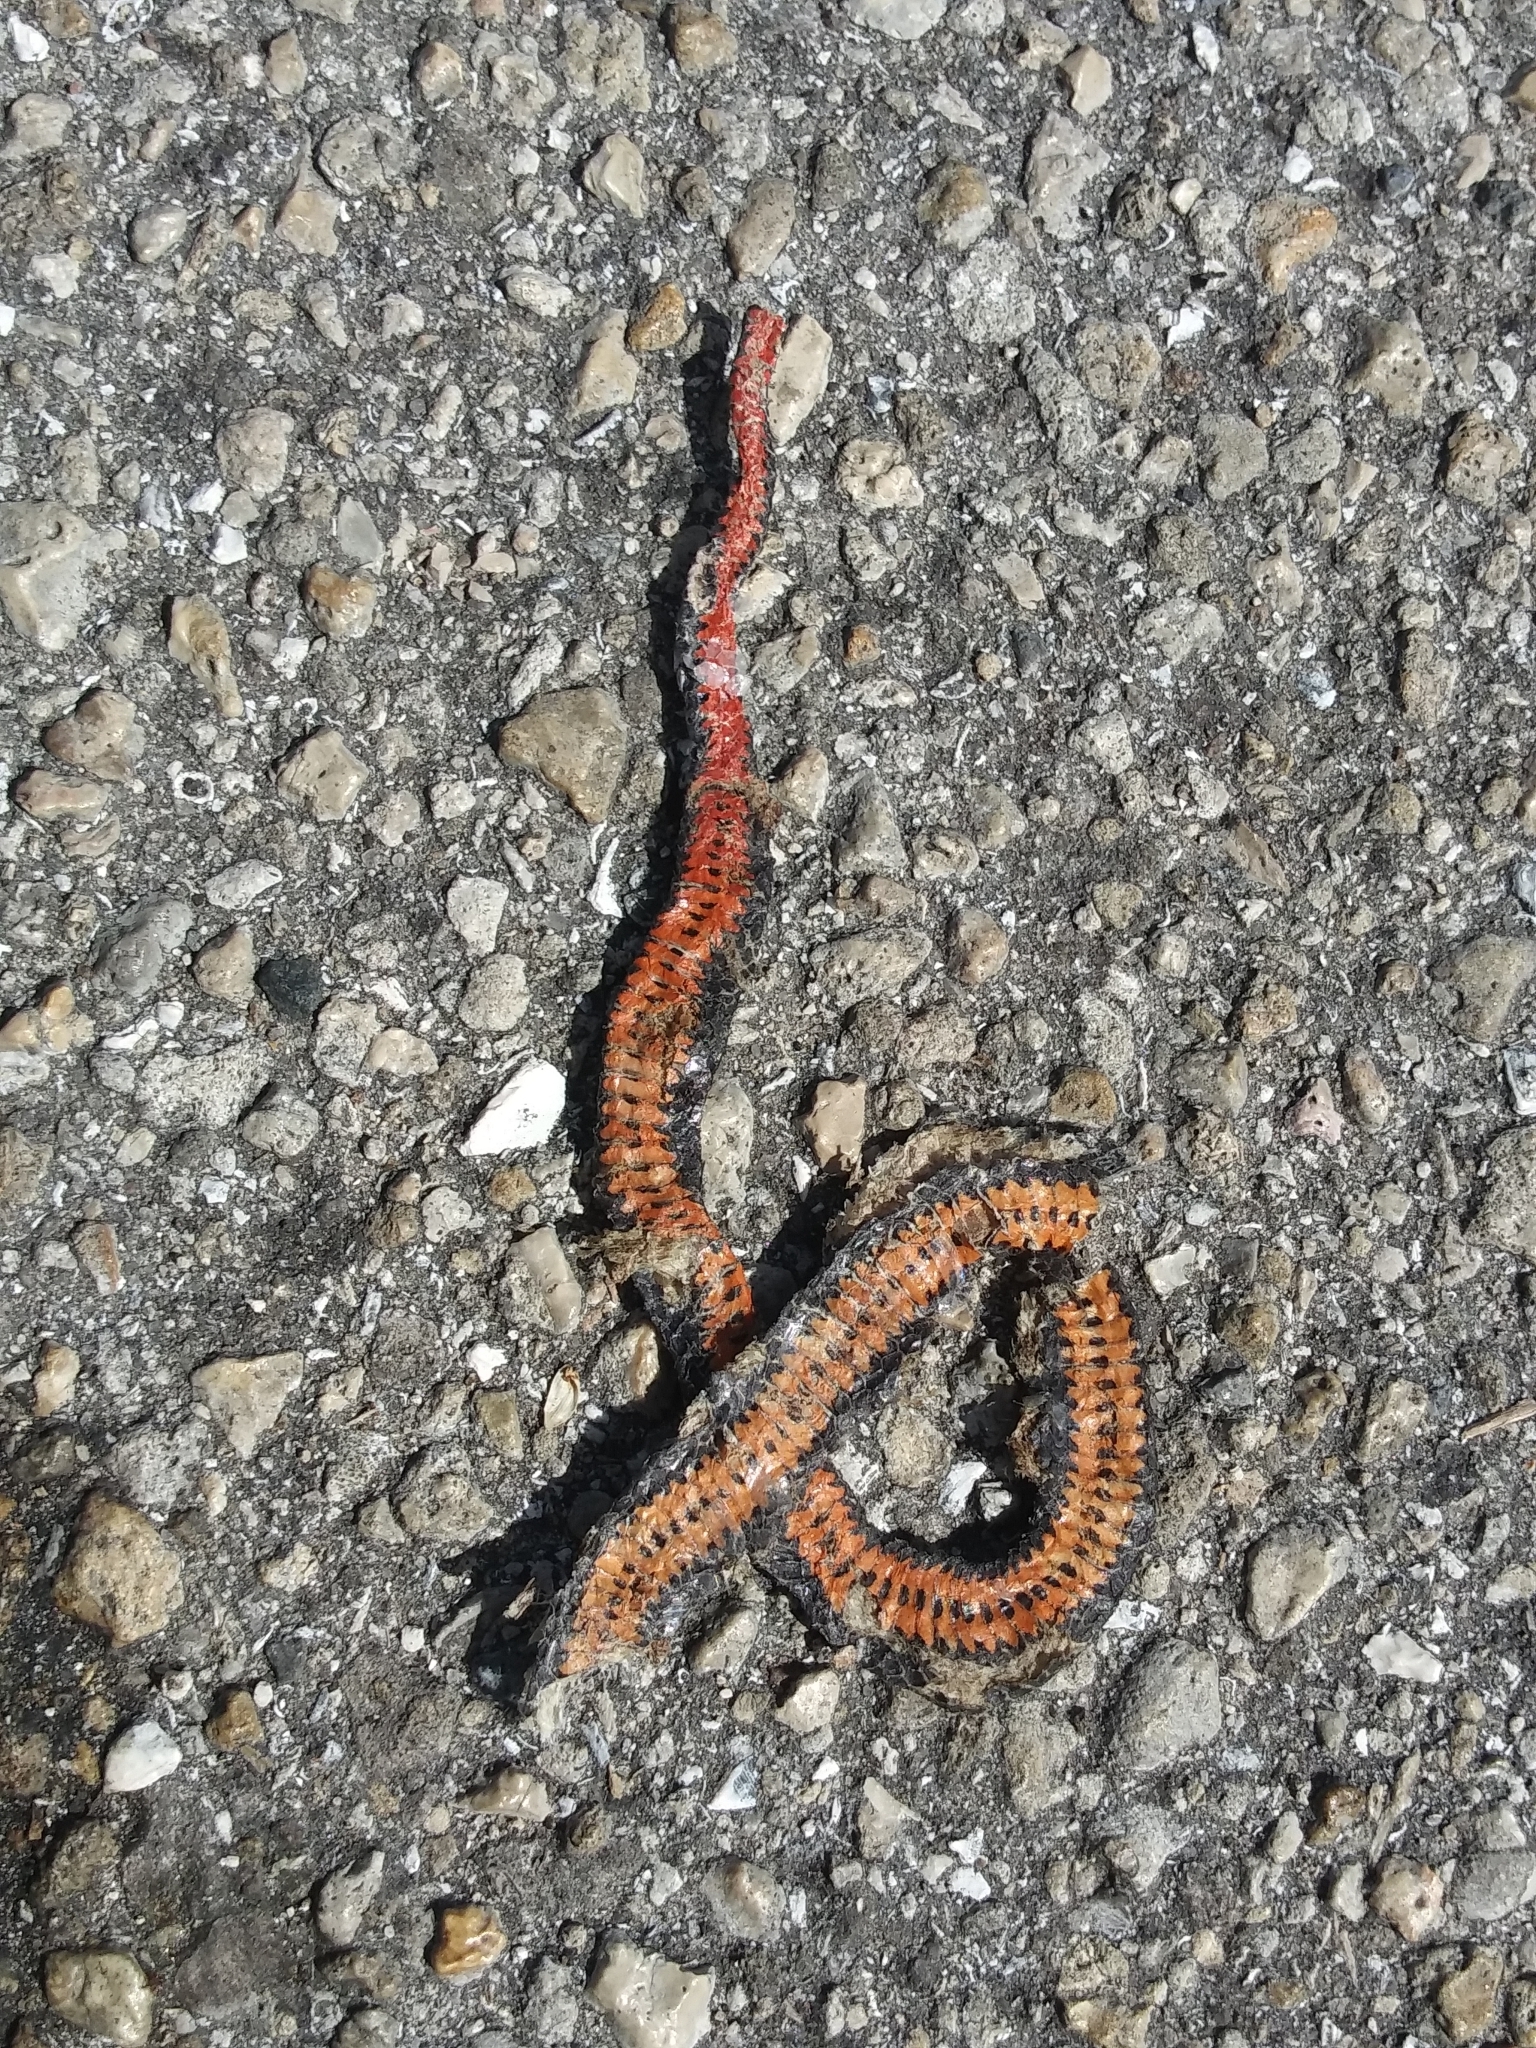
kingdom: Animalia
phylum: Chordata
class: Squamata
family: Colubridae
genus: Diadophis
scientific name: Diadophis punctatus
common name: Ringneck snake
